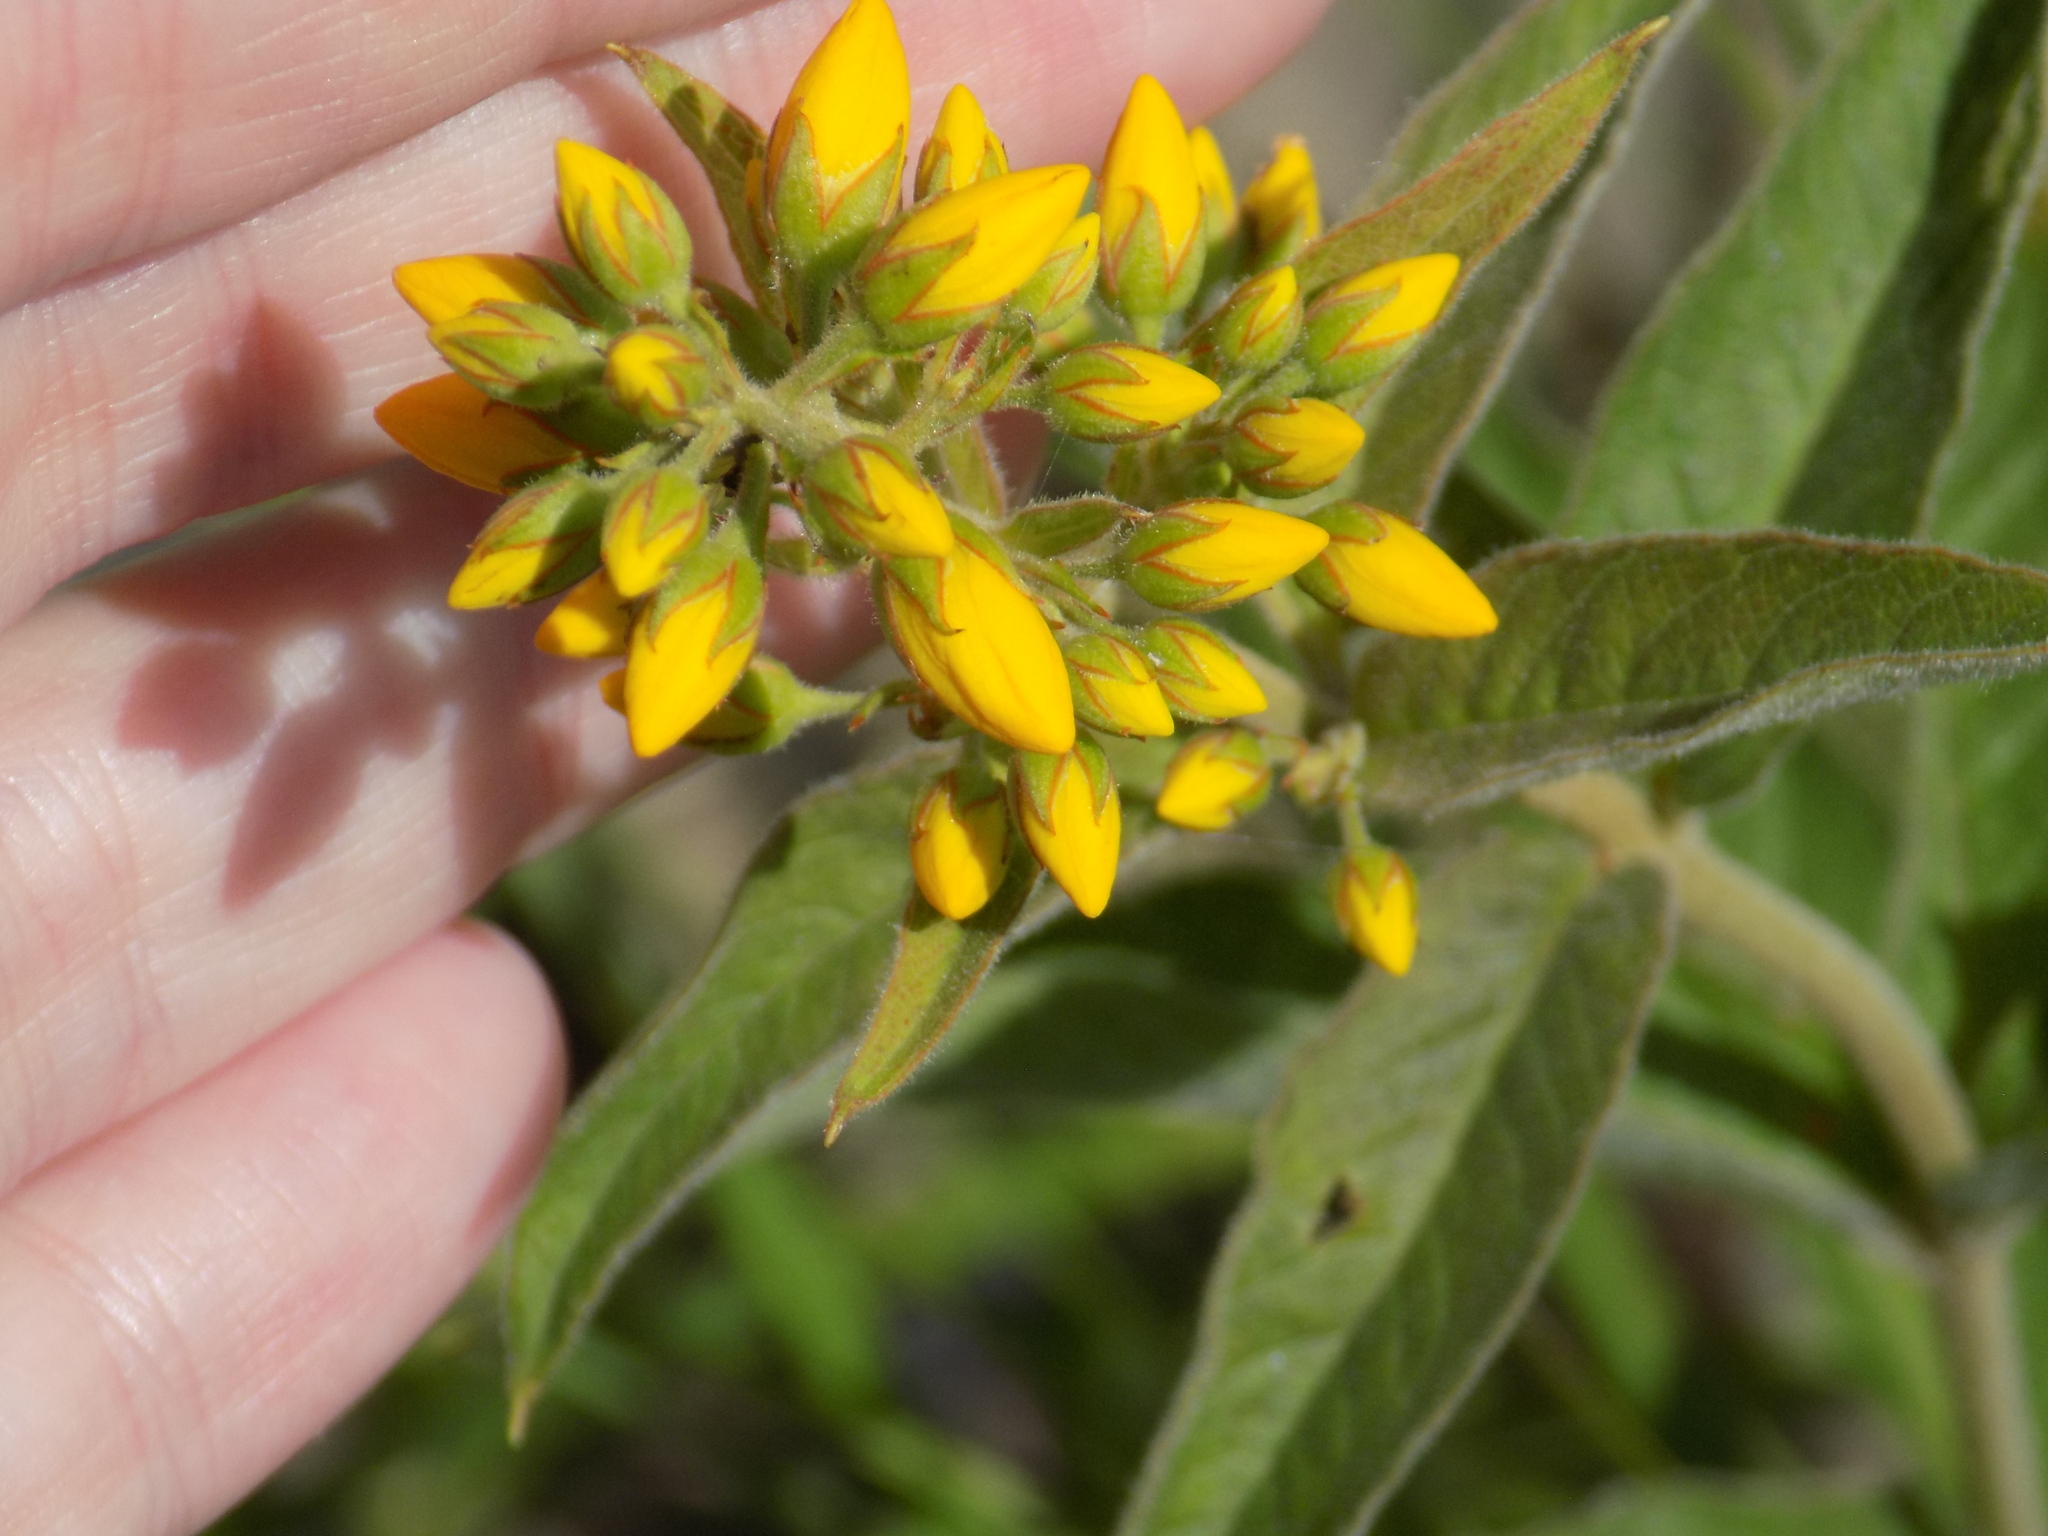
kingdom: Plantae
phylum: Tracheophyta
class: Magnoliopsida
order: Ericales
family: Primulaceae
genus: Lysimachia
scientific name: Lysimachia vulgaris
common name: Yellow loosestrife
